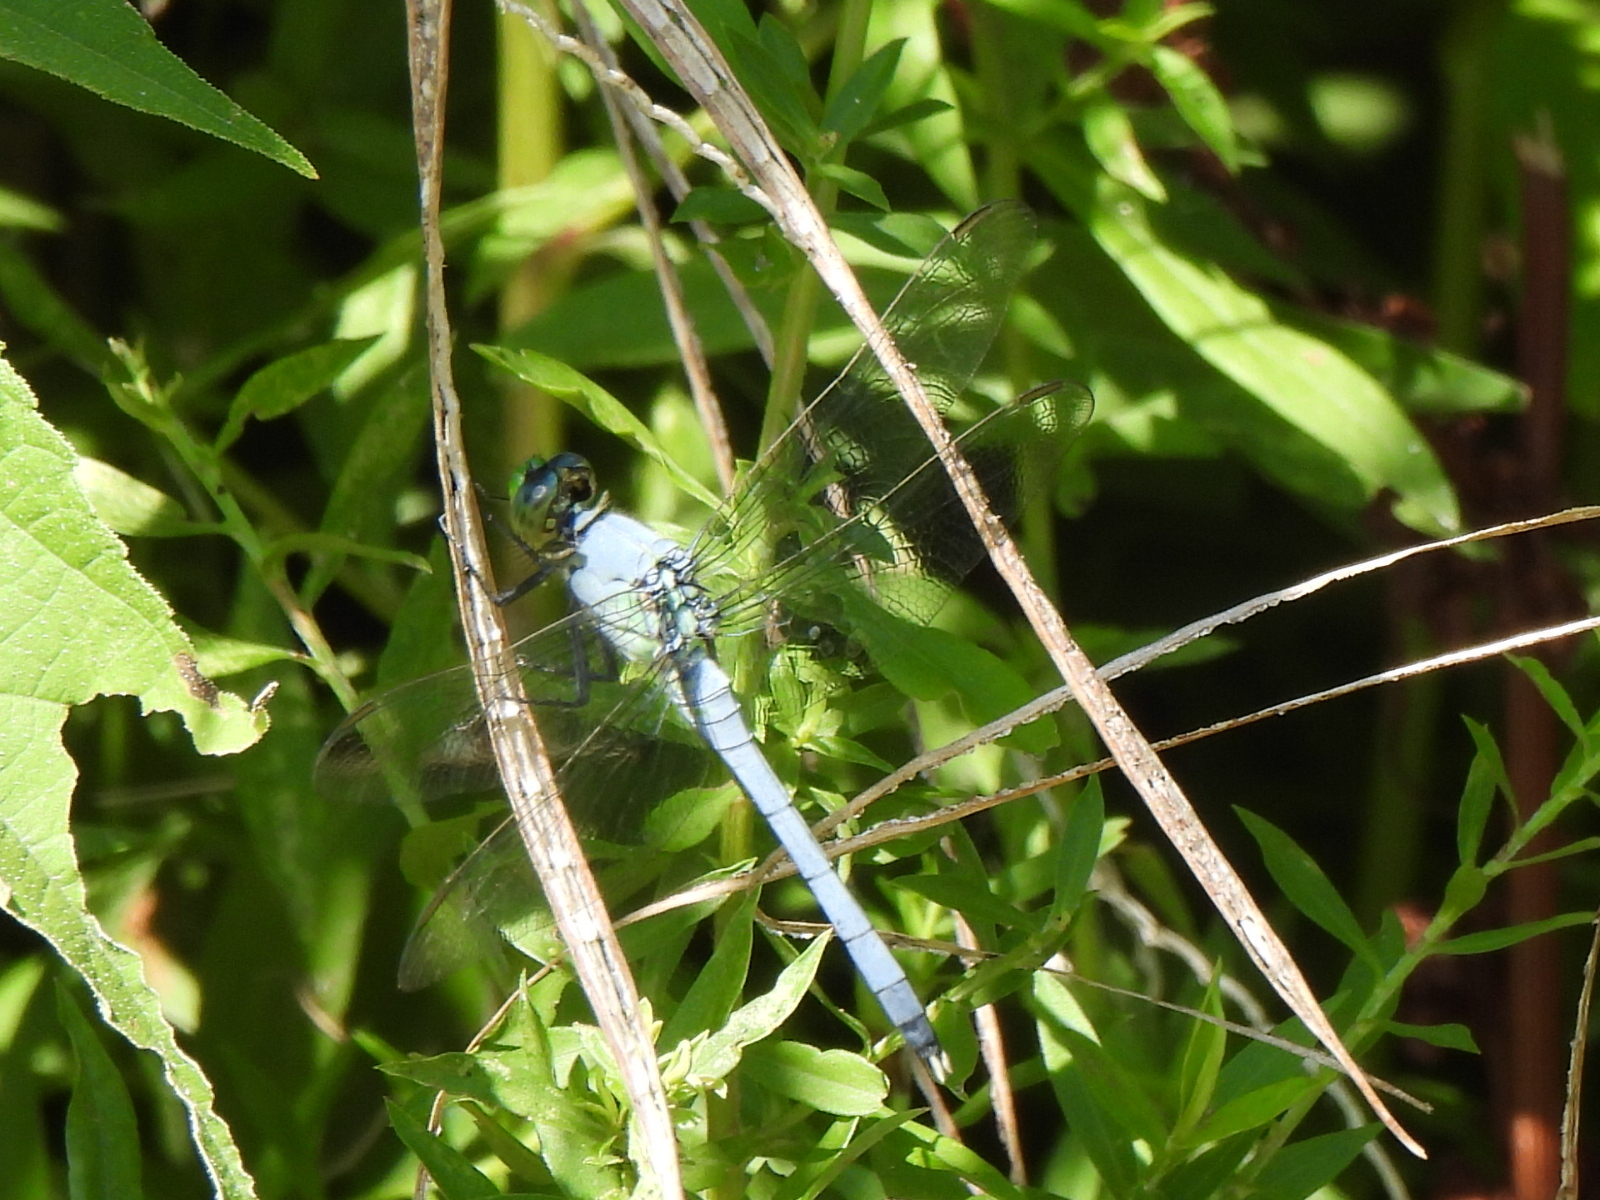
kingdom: Animalia
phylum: Arthropoda
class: Insecta
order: Odonata
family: Libellulidae
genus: Erythemis
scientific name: Erythemis simplicicollis
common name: Eastern pondhawk
